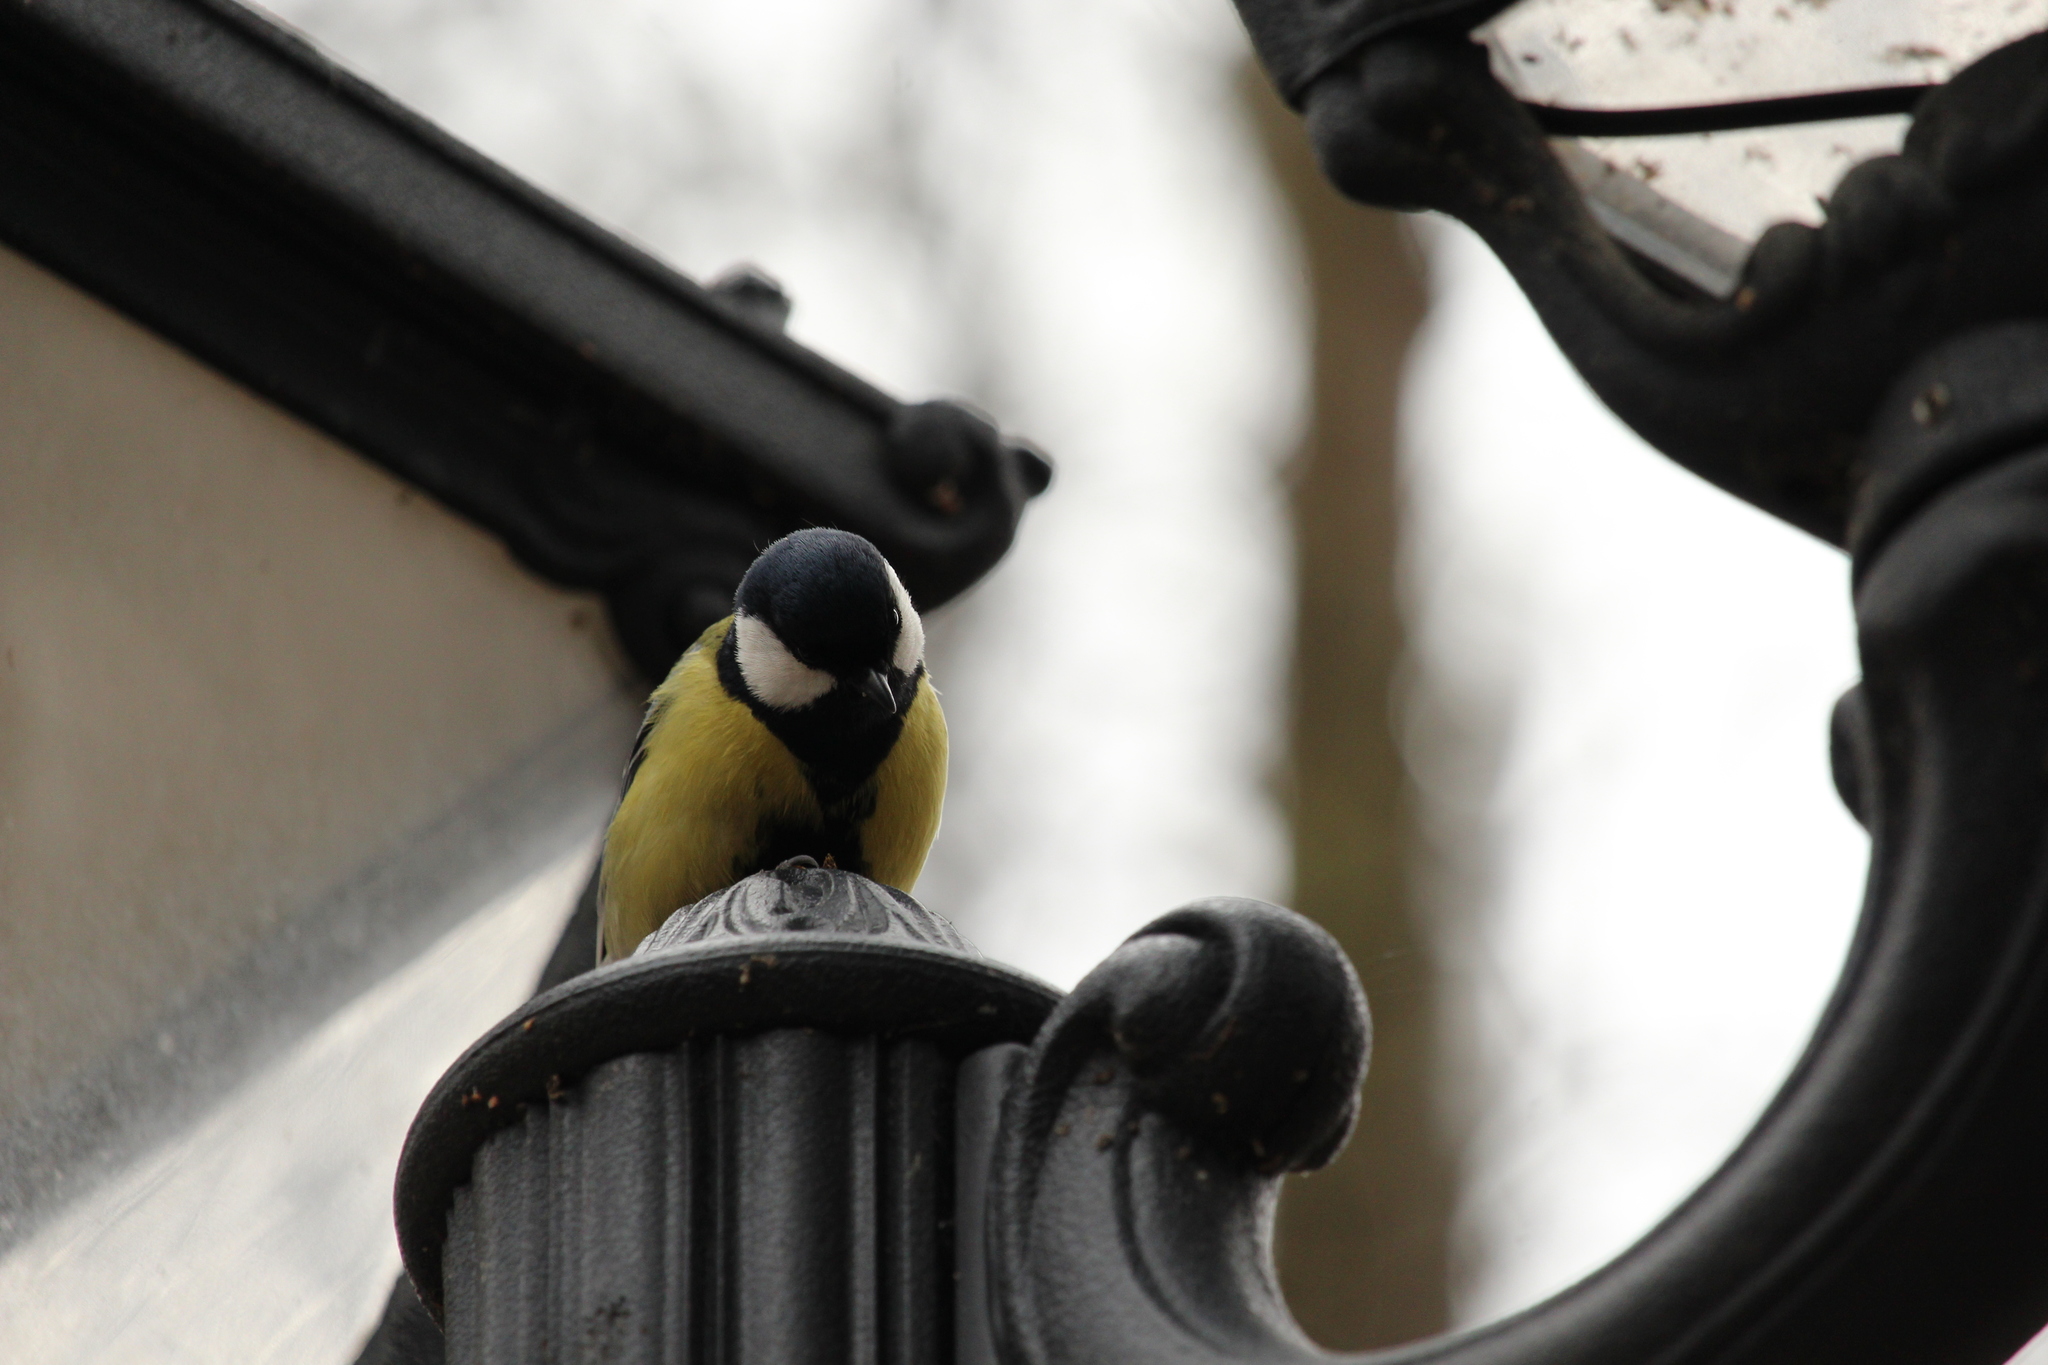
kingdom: Animalia
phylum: Chordata
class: Aves
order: Passeriformes
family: Paridae
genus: Parus
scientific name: Parus major
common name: Great tit
